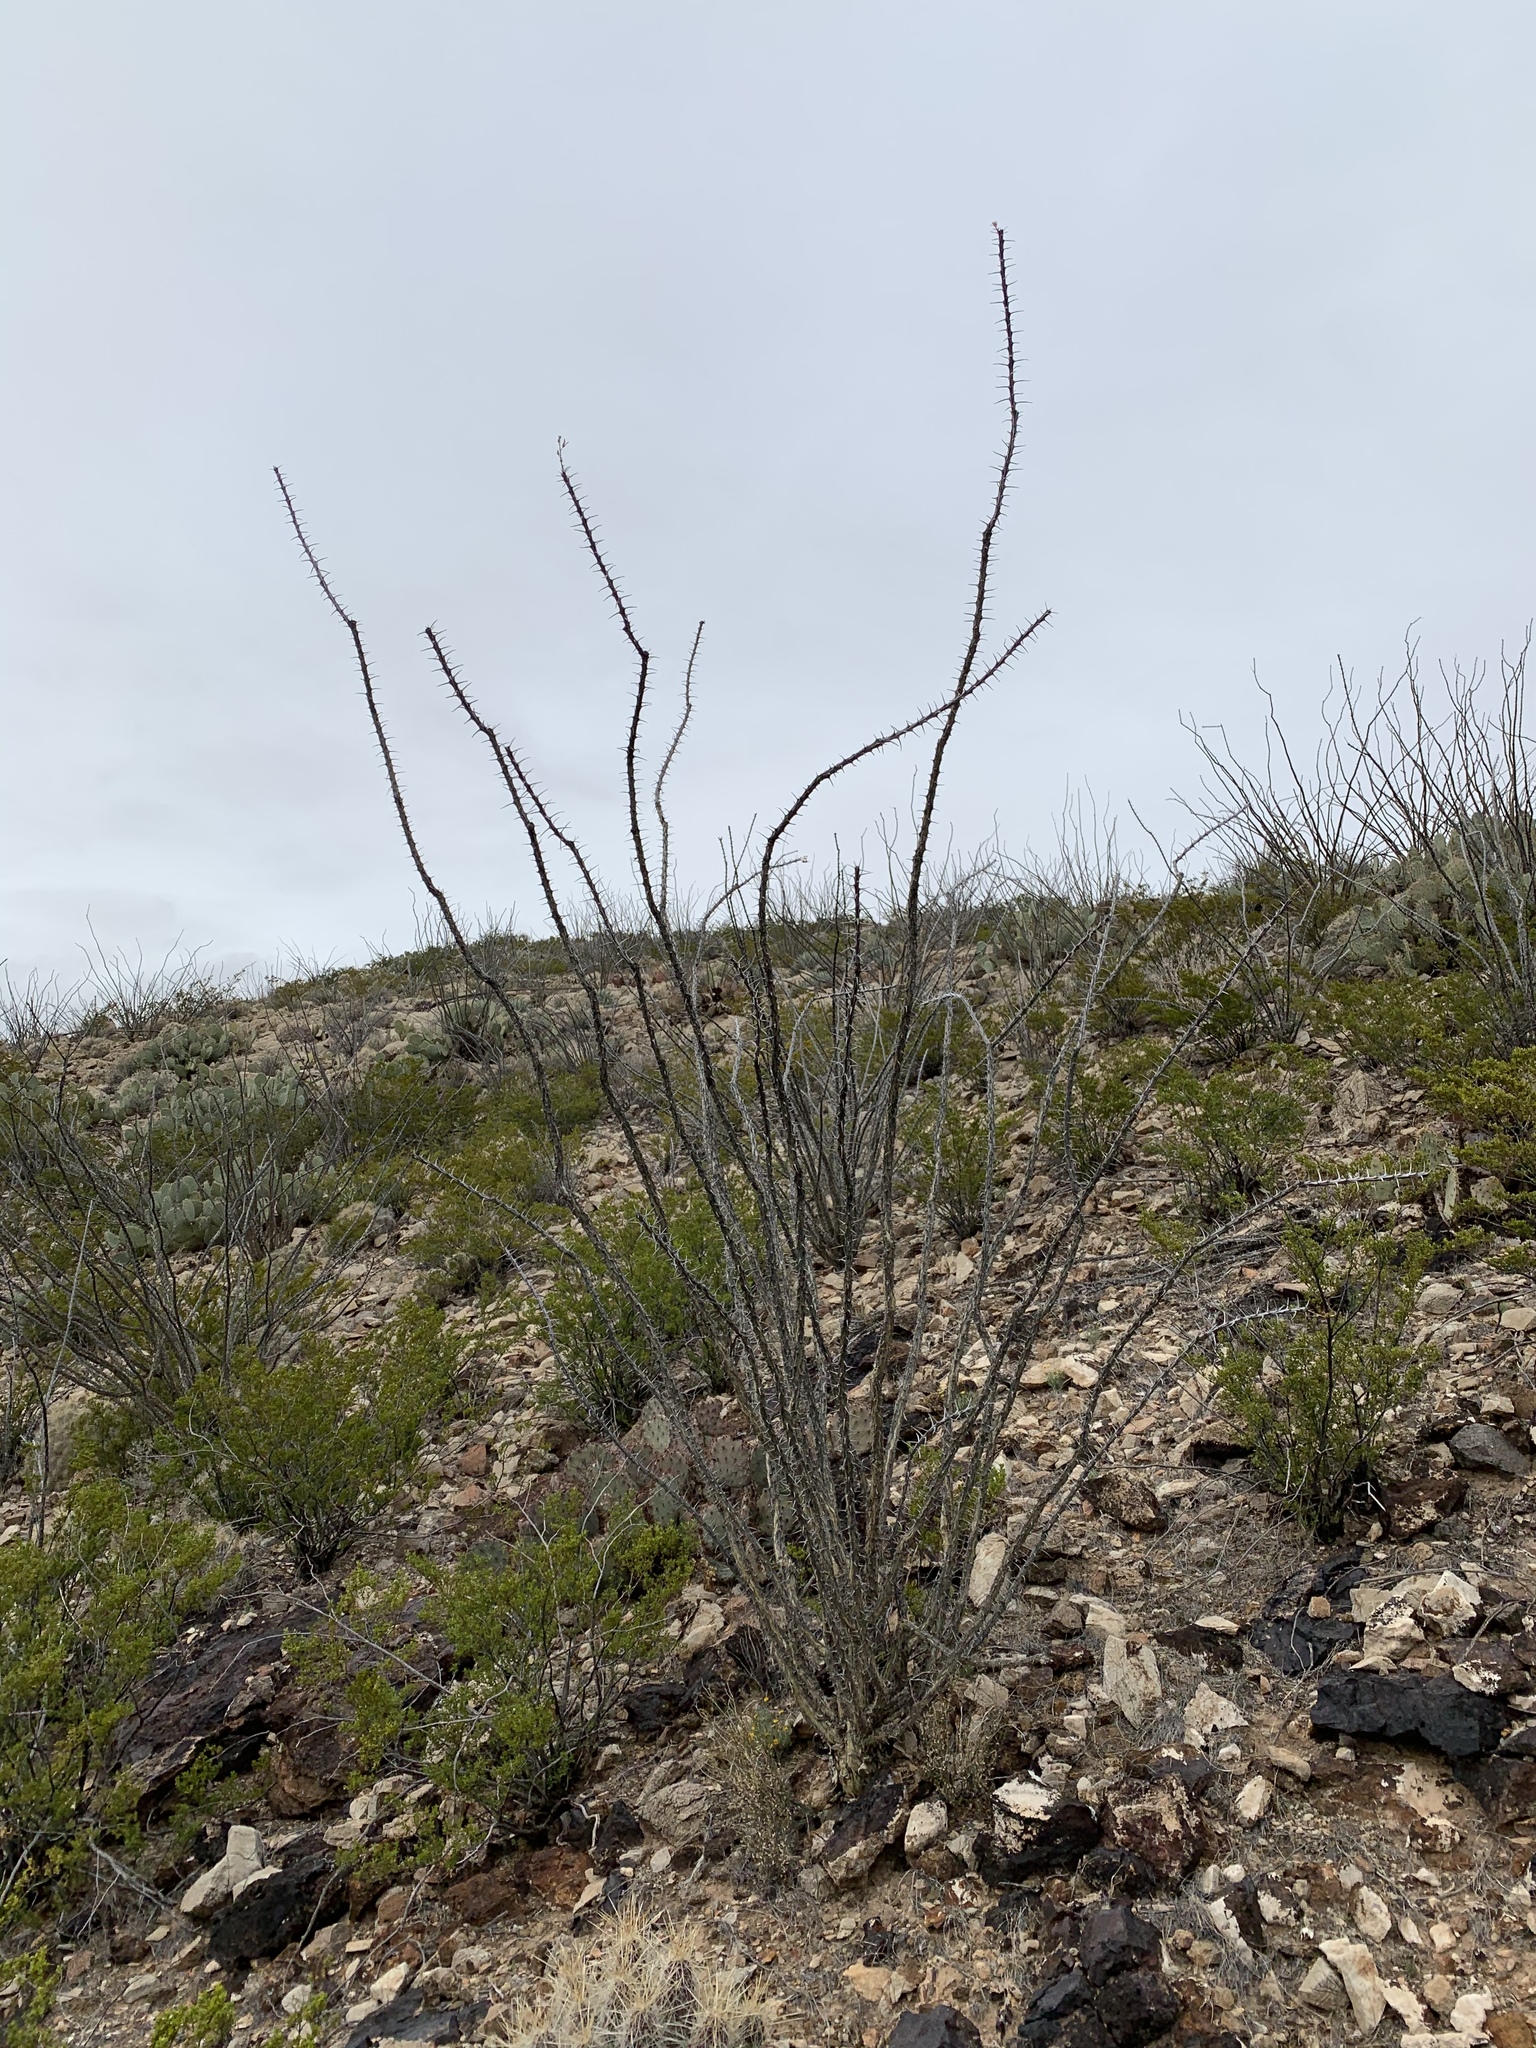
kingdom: Plantae
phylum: Tracheophyta
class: Magnoliopsida
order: Ericales
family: Fouquieriaceae
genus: Fouquieria
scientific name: Fouquieria splendens
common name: Vine-cactus
